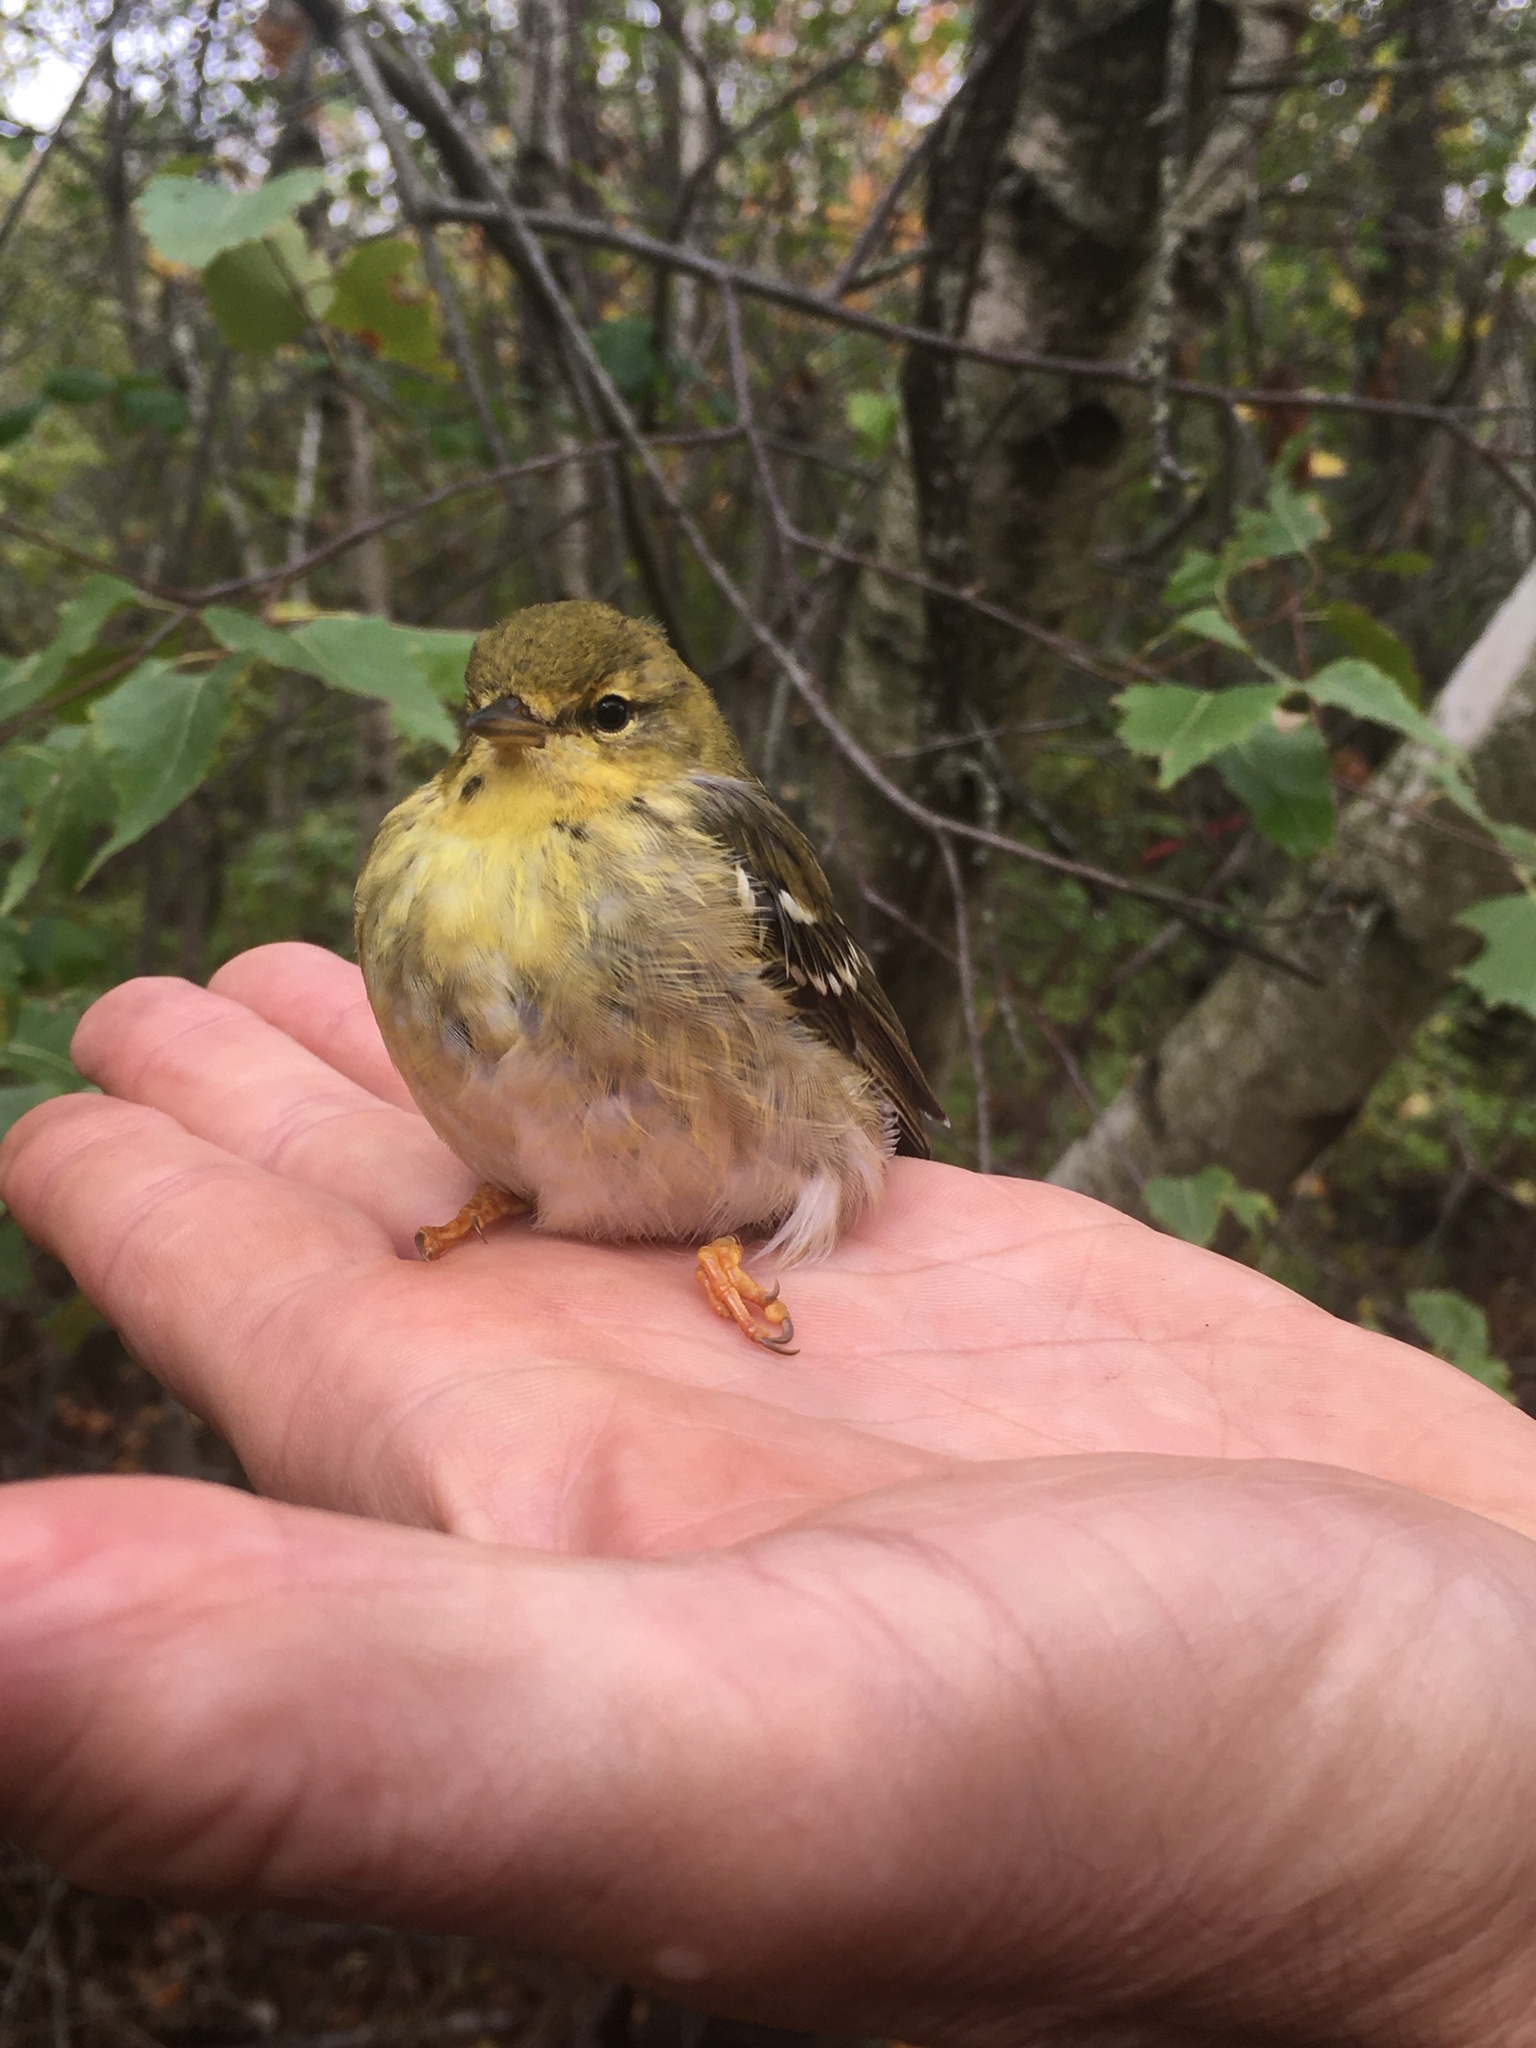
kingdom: Animalia
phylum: Chordata
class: Aves
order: Passeriformes
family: Parulidae
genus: Setophaga
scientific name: Setophaga striata
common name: Blackpoll warbler
